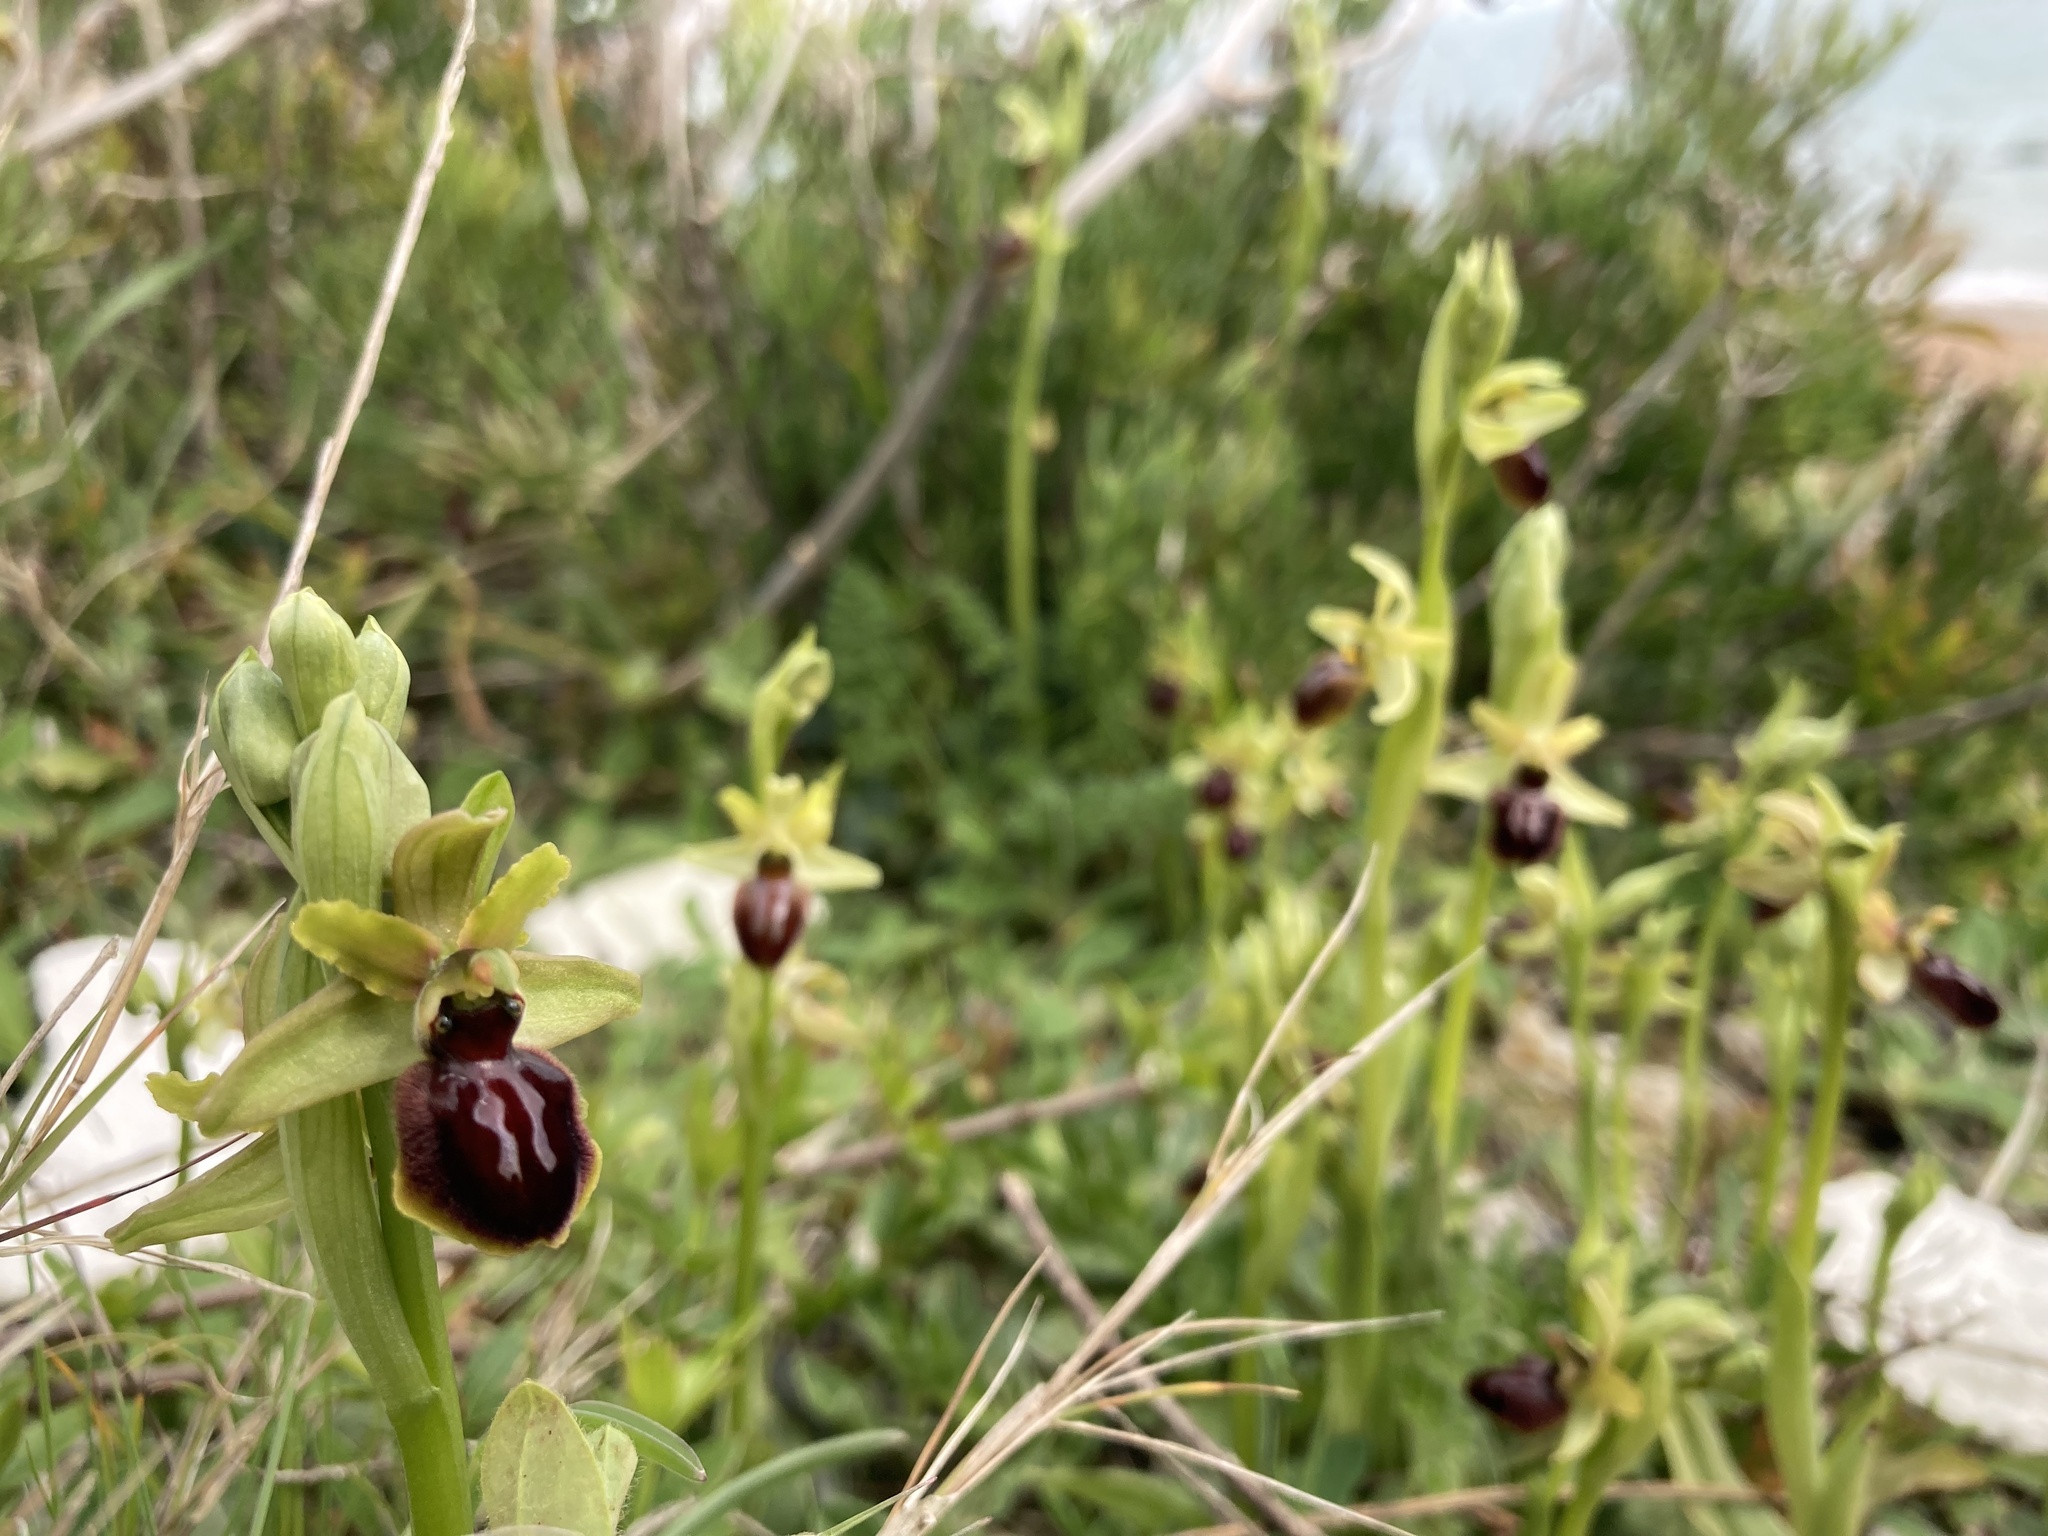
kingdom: Plantae
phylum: Tracheophyta
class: Liliopsida
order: Asparagales
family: Orchidaceae
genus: Ophrys
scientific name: Ophrys sphegodes
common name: Early spider-orchid
